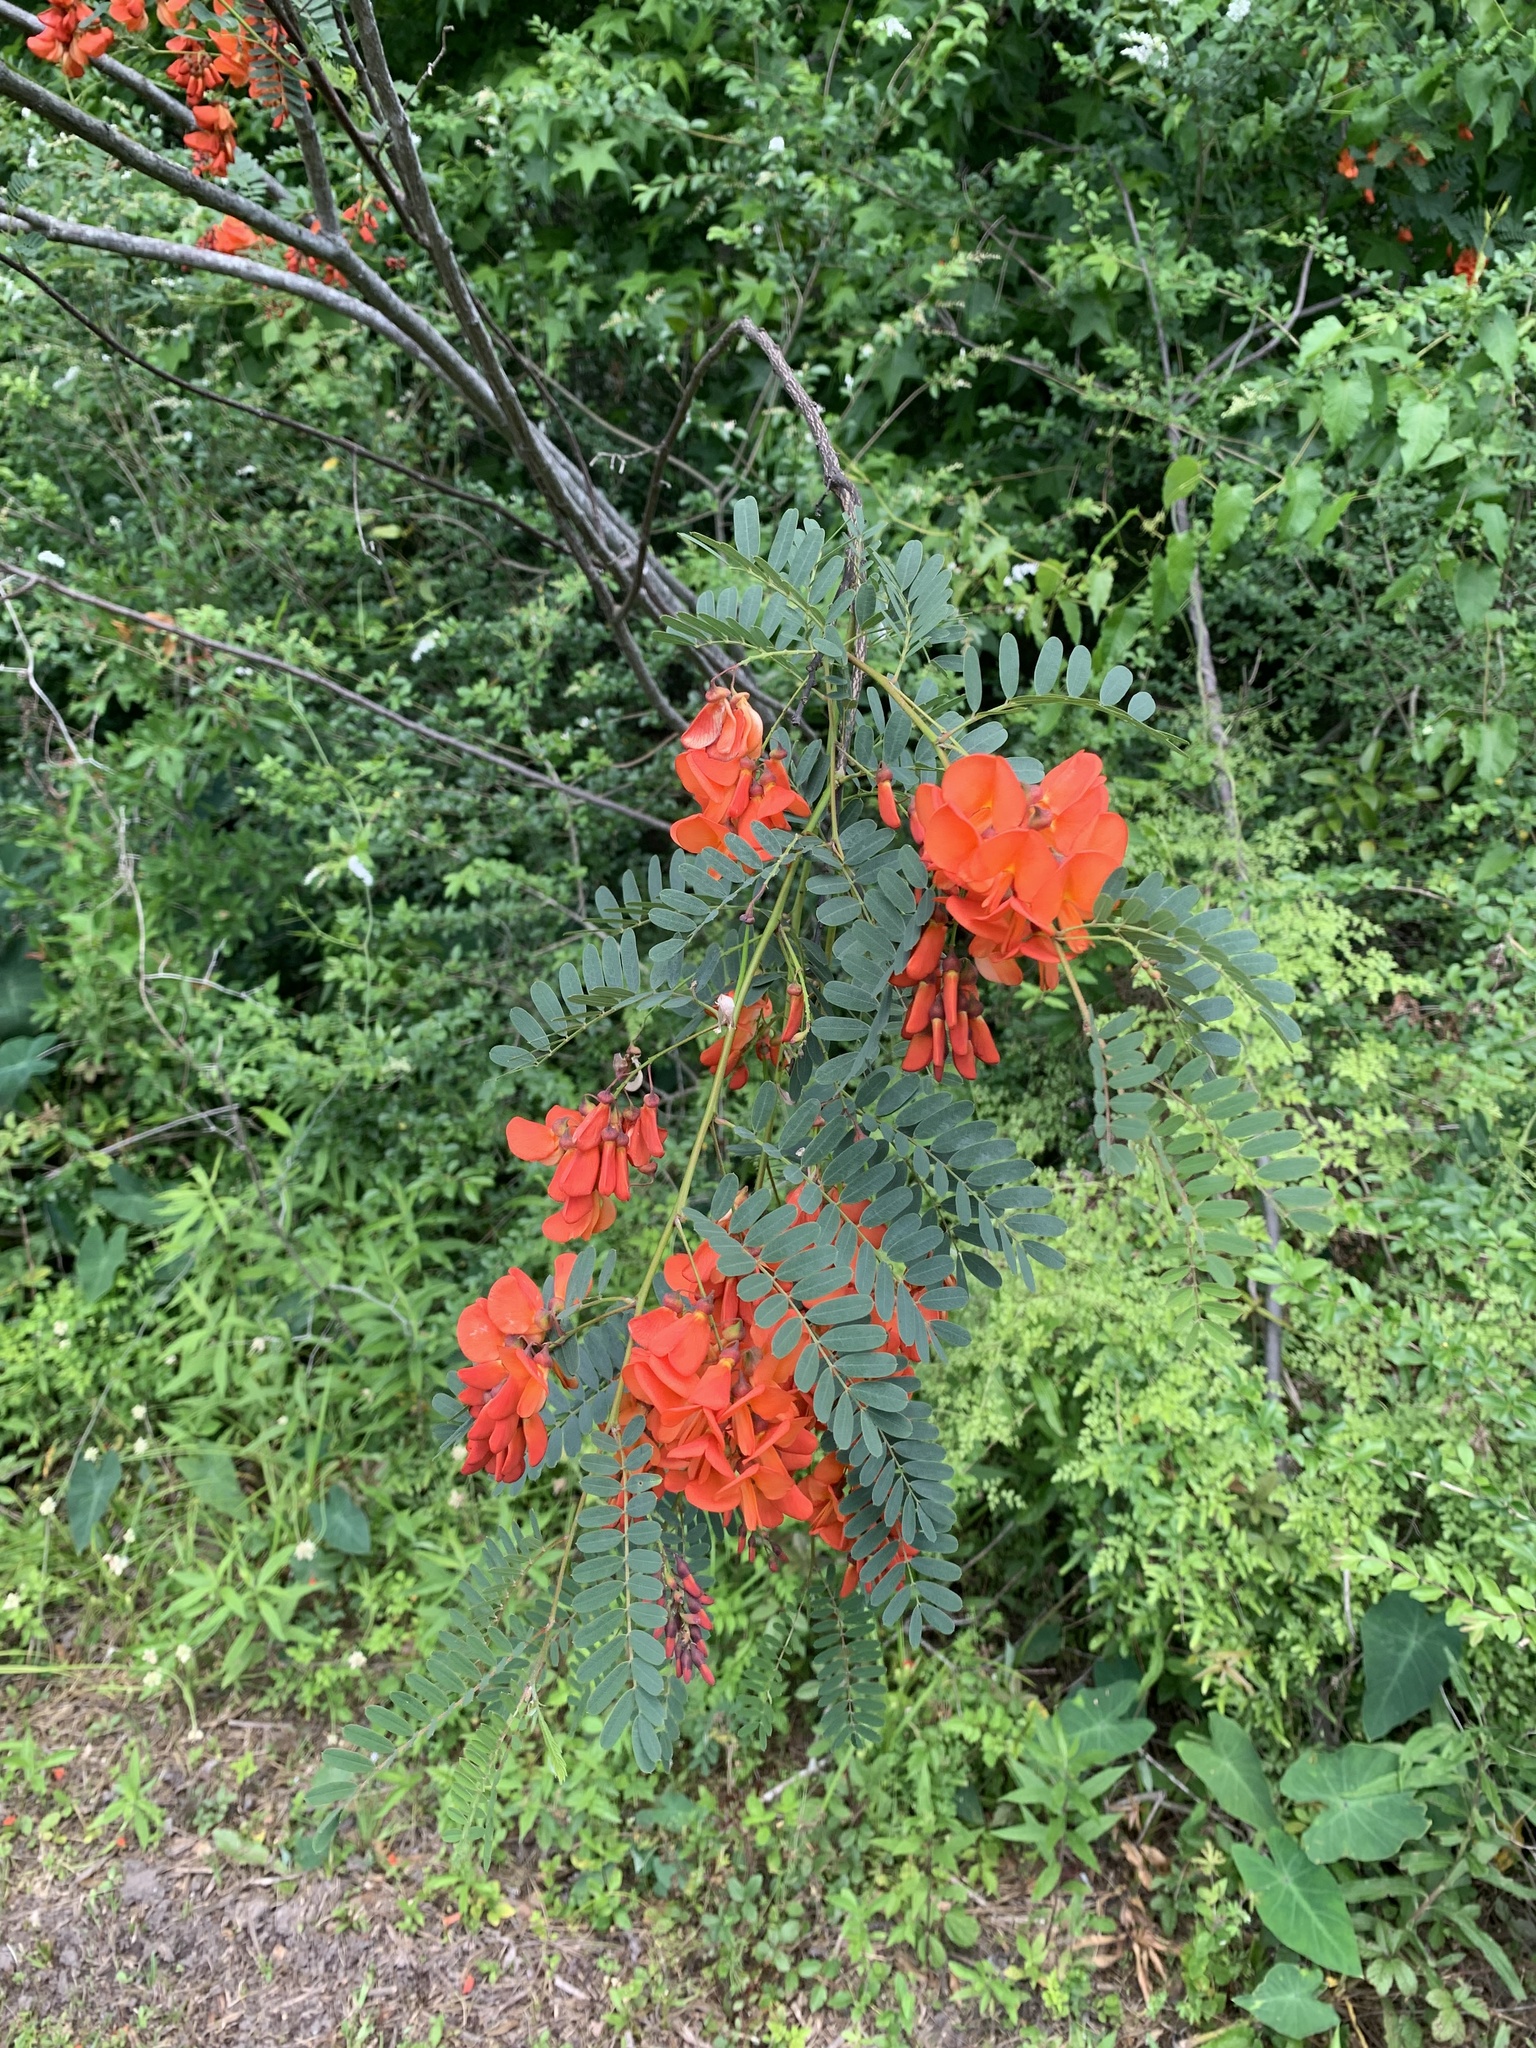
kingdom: Plantae
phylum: Tracheophyta
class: Magnoliopsida
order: Fabales
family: Fabaceae
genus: Sesbania
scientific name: Sesbania punicea
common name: Rattlebox
